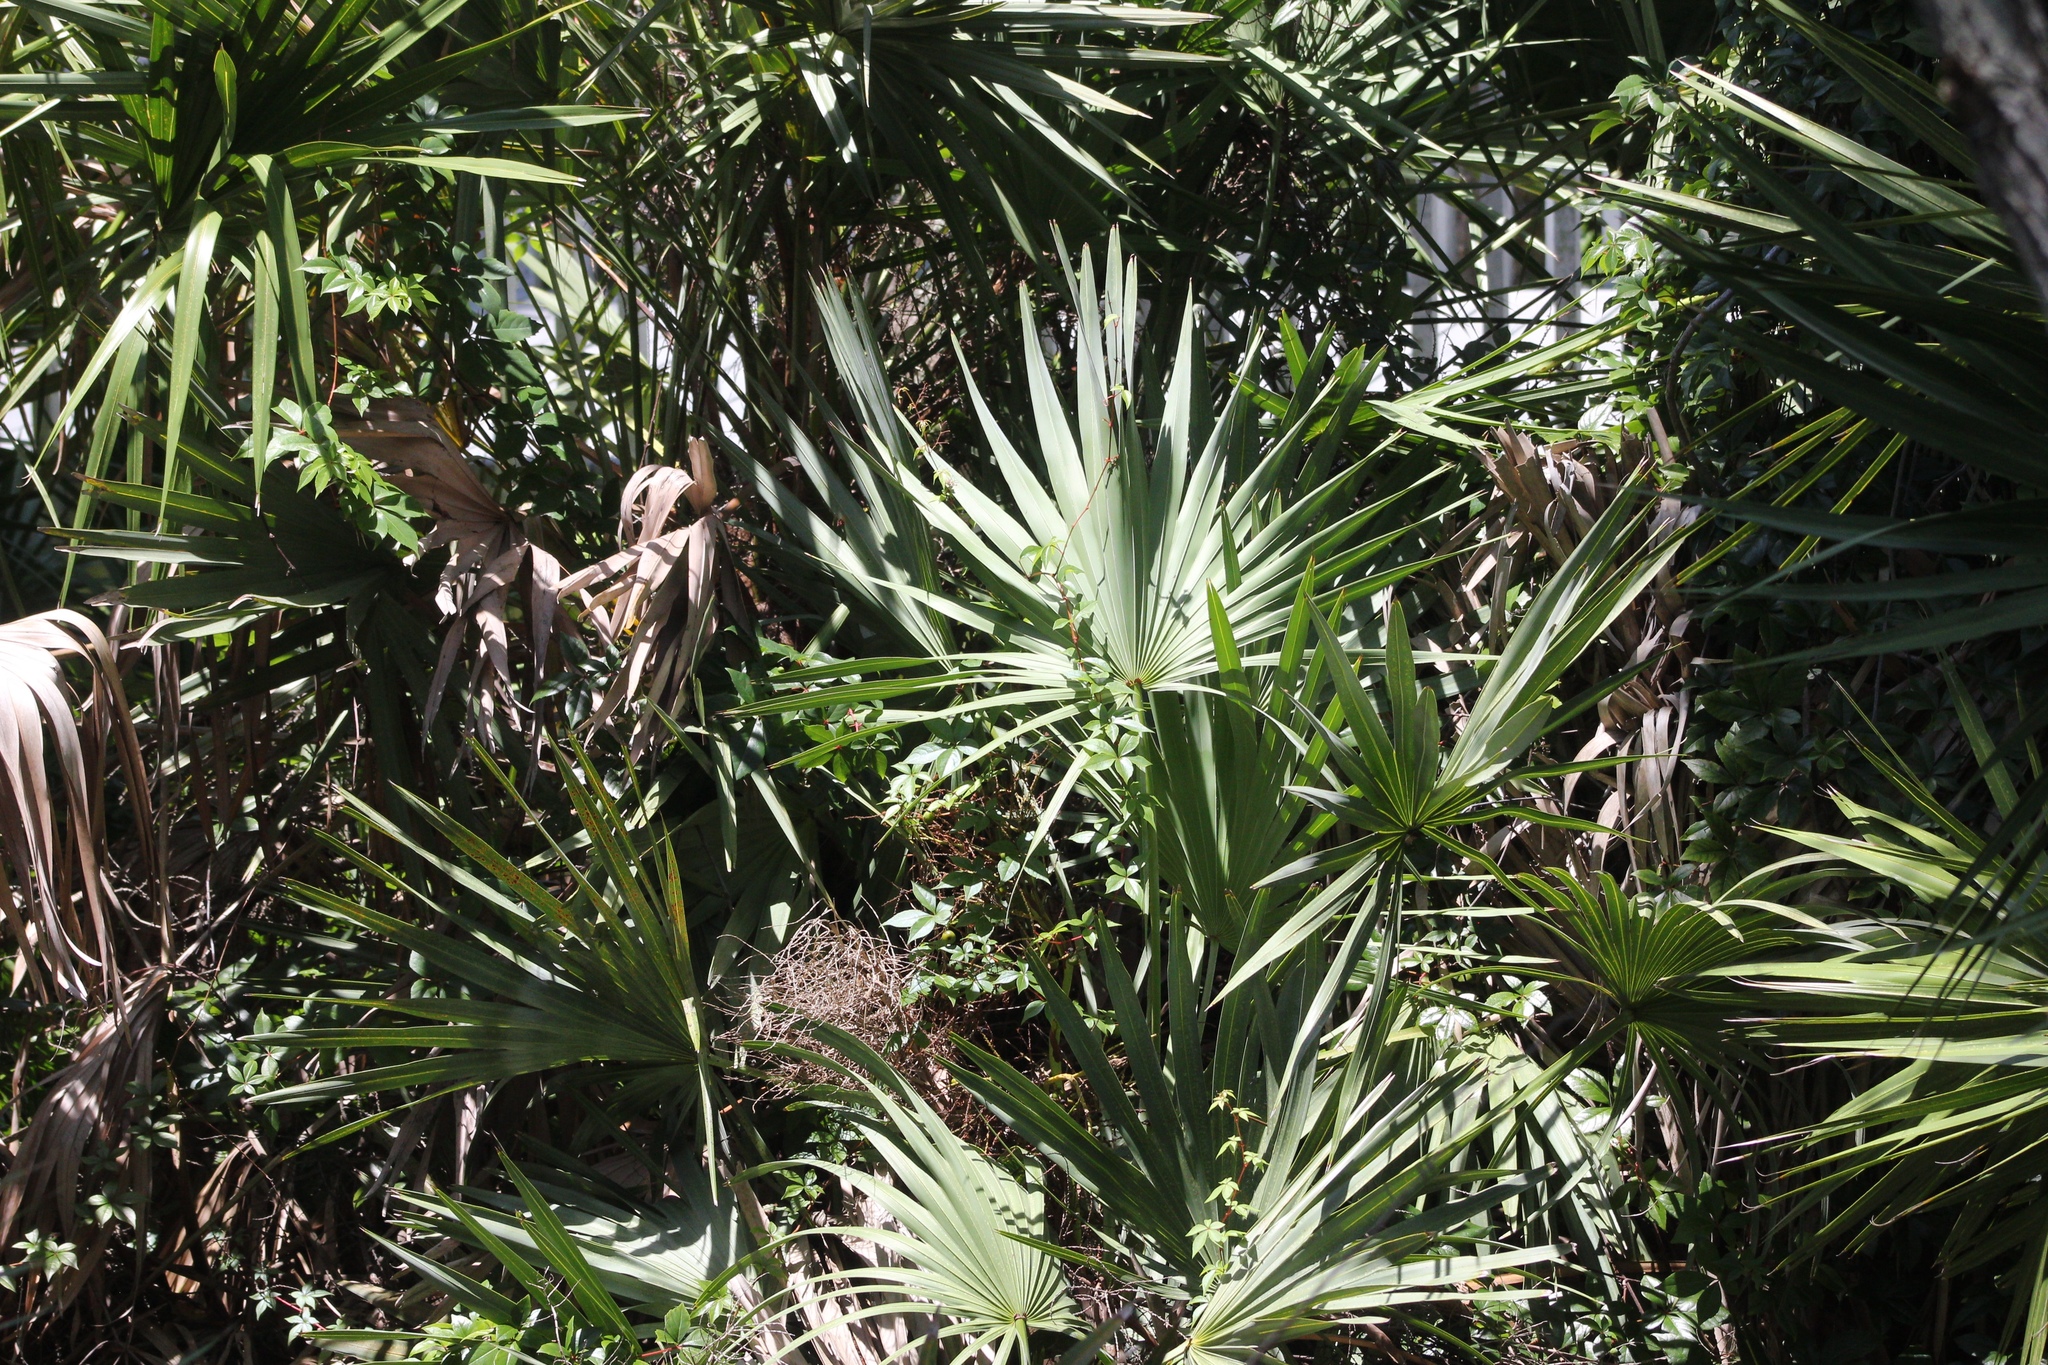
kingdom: Plantae
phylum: Tracheophyta
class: Liliopsida
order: Arecales
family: Arecaceae
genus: Serenoa
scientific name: Serenoa repens
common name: Saw-palmetto
